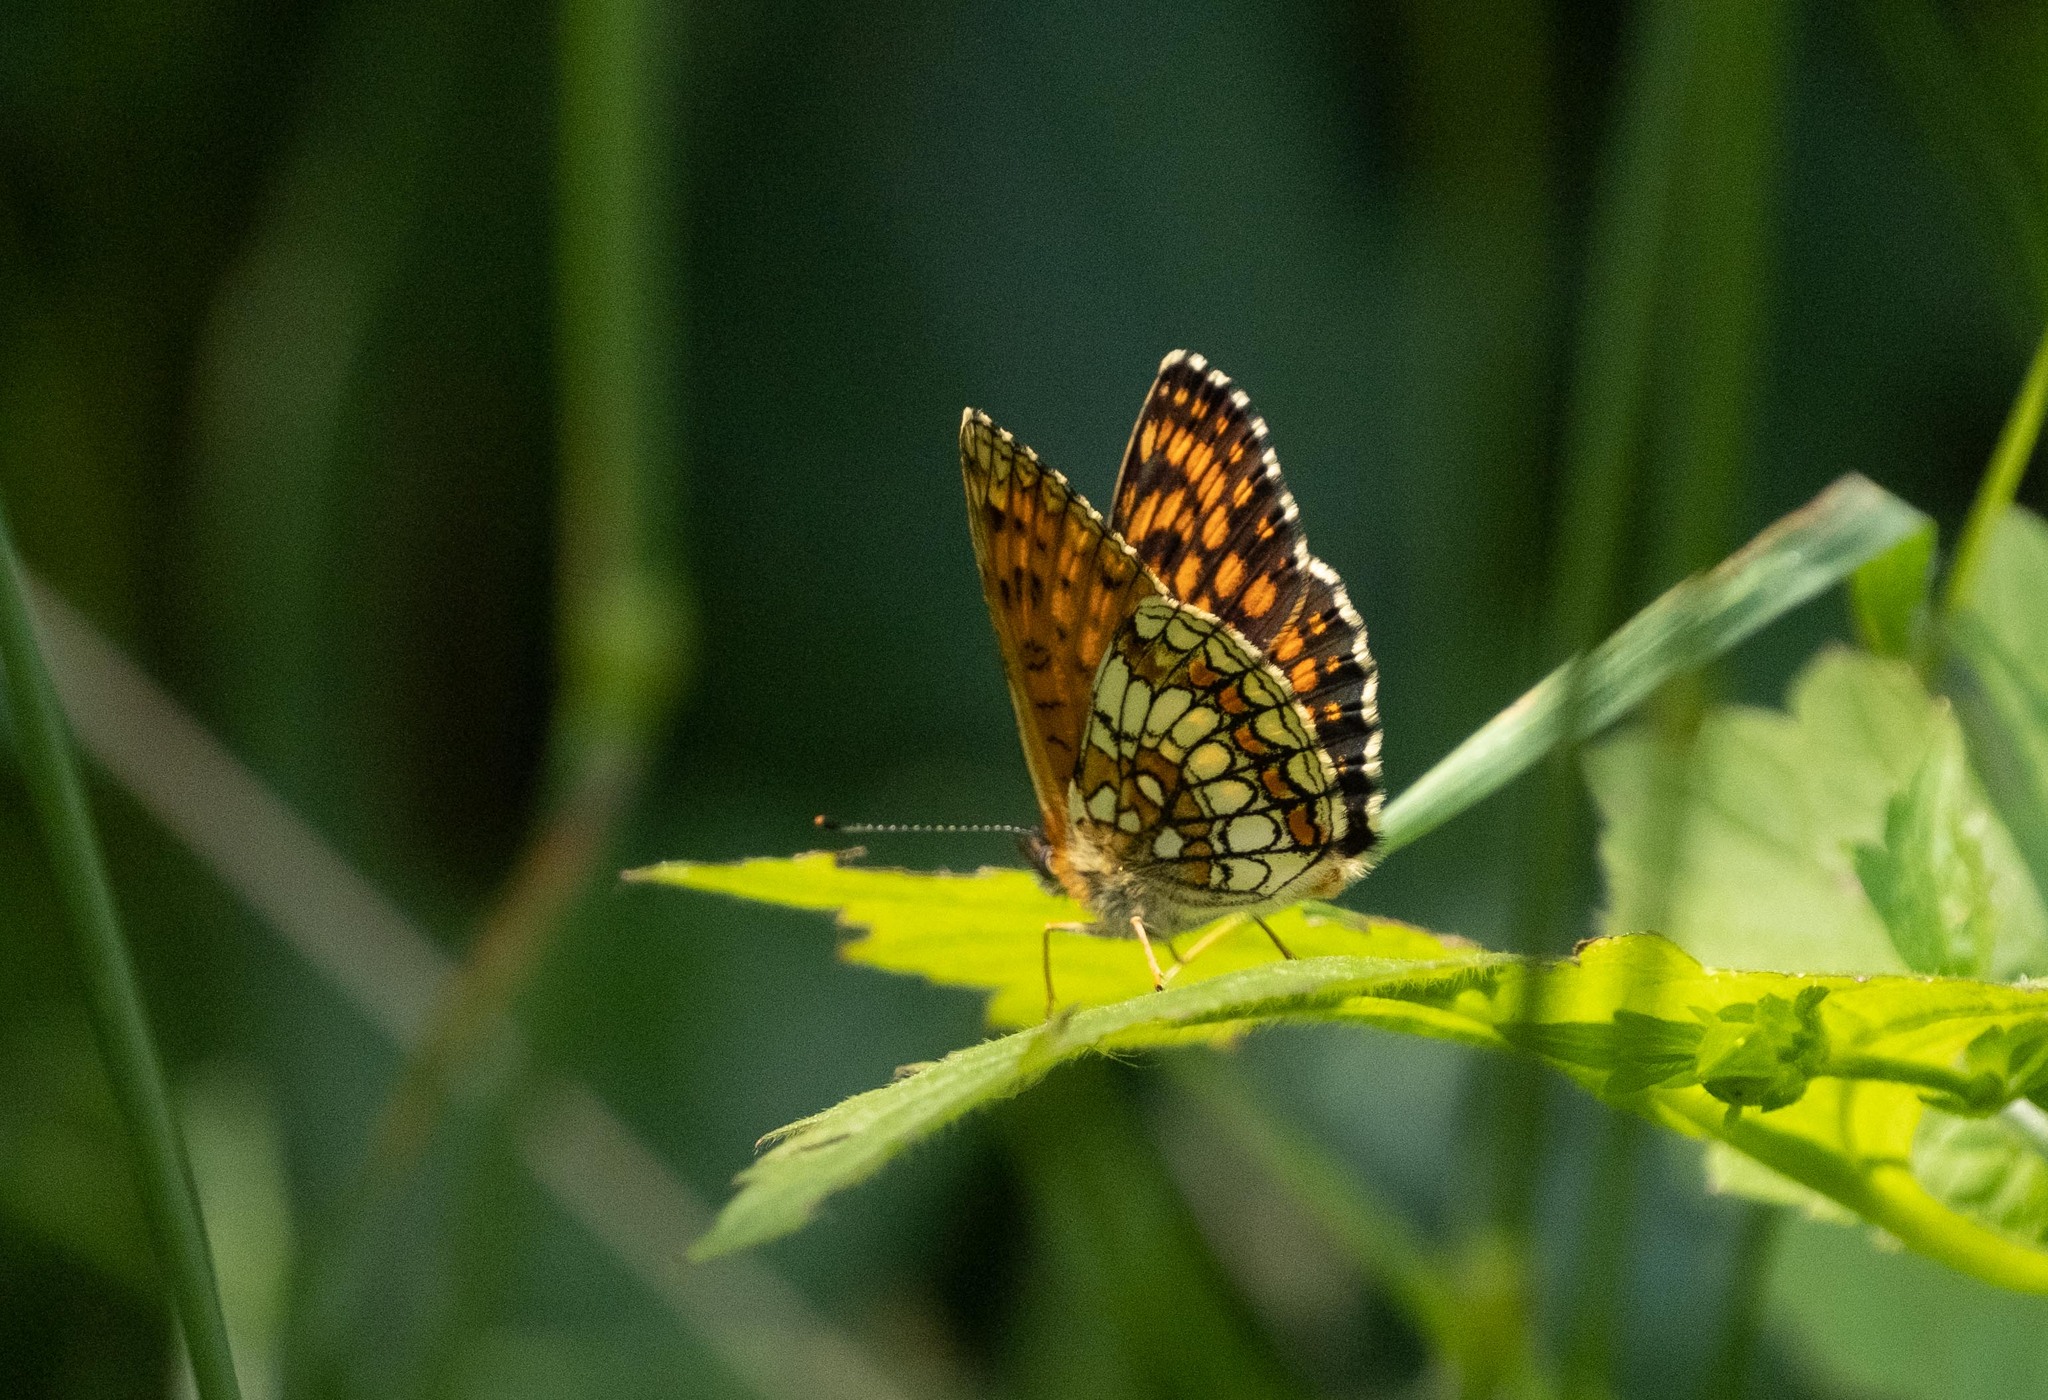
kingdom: Animalia
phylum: Arthropoda
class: Insecta
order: Lepidoptera
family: Nymphalidae
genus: Melitaea
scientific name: Melitaea athalia
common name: Heath fritillary
